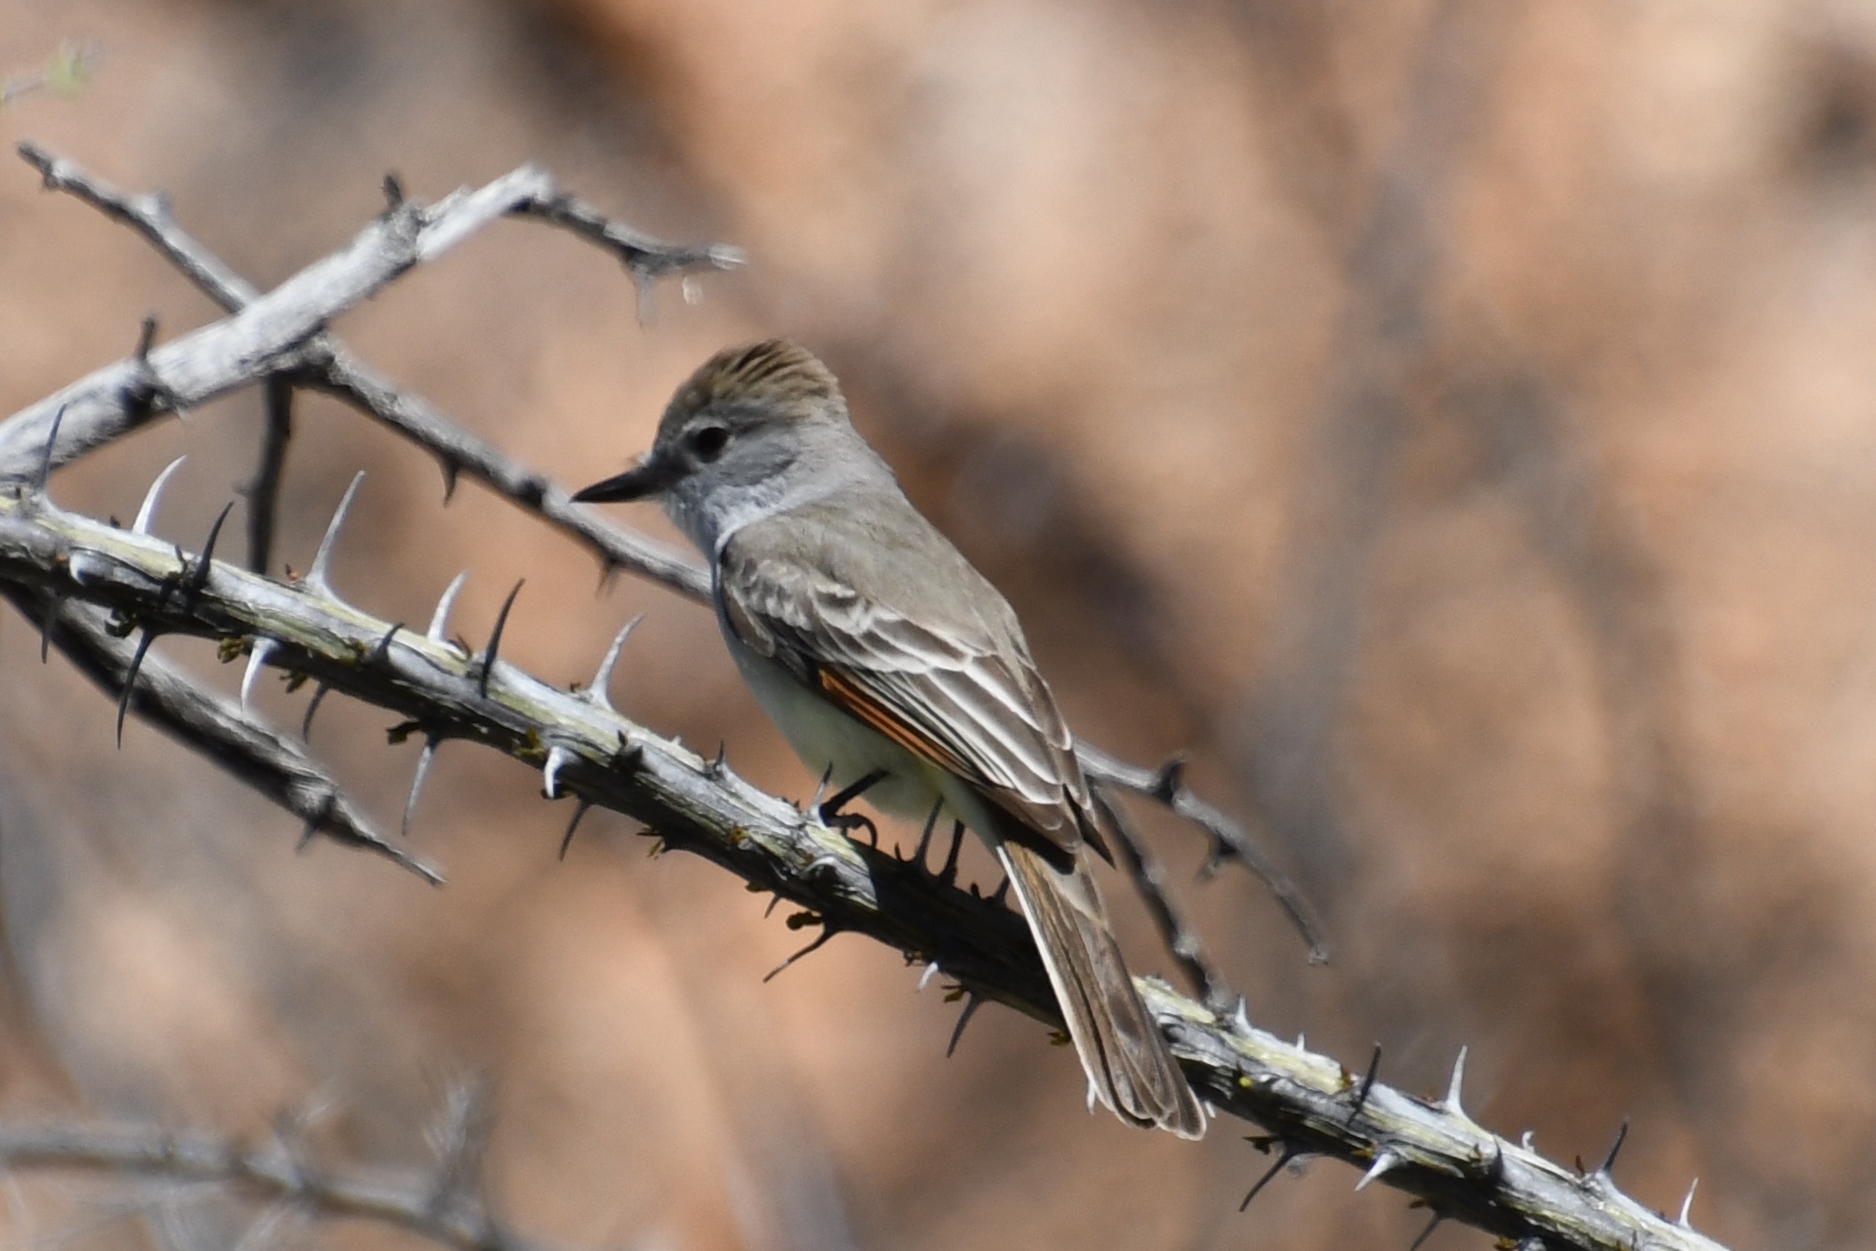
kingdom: Animalia
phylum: Chordata
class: Aves
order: Passeriformes
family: Tyrannidae
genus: Myiarchus
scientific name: Myiarchus cinerascens
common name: Ash-throated flycatcher
